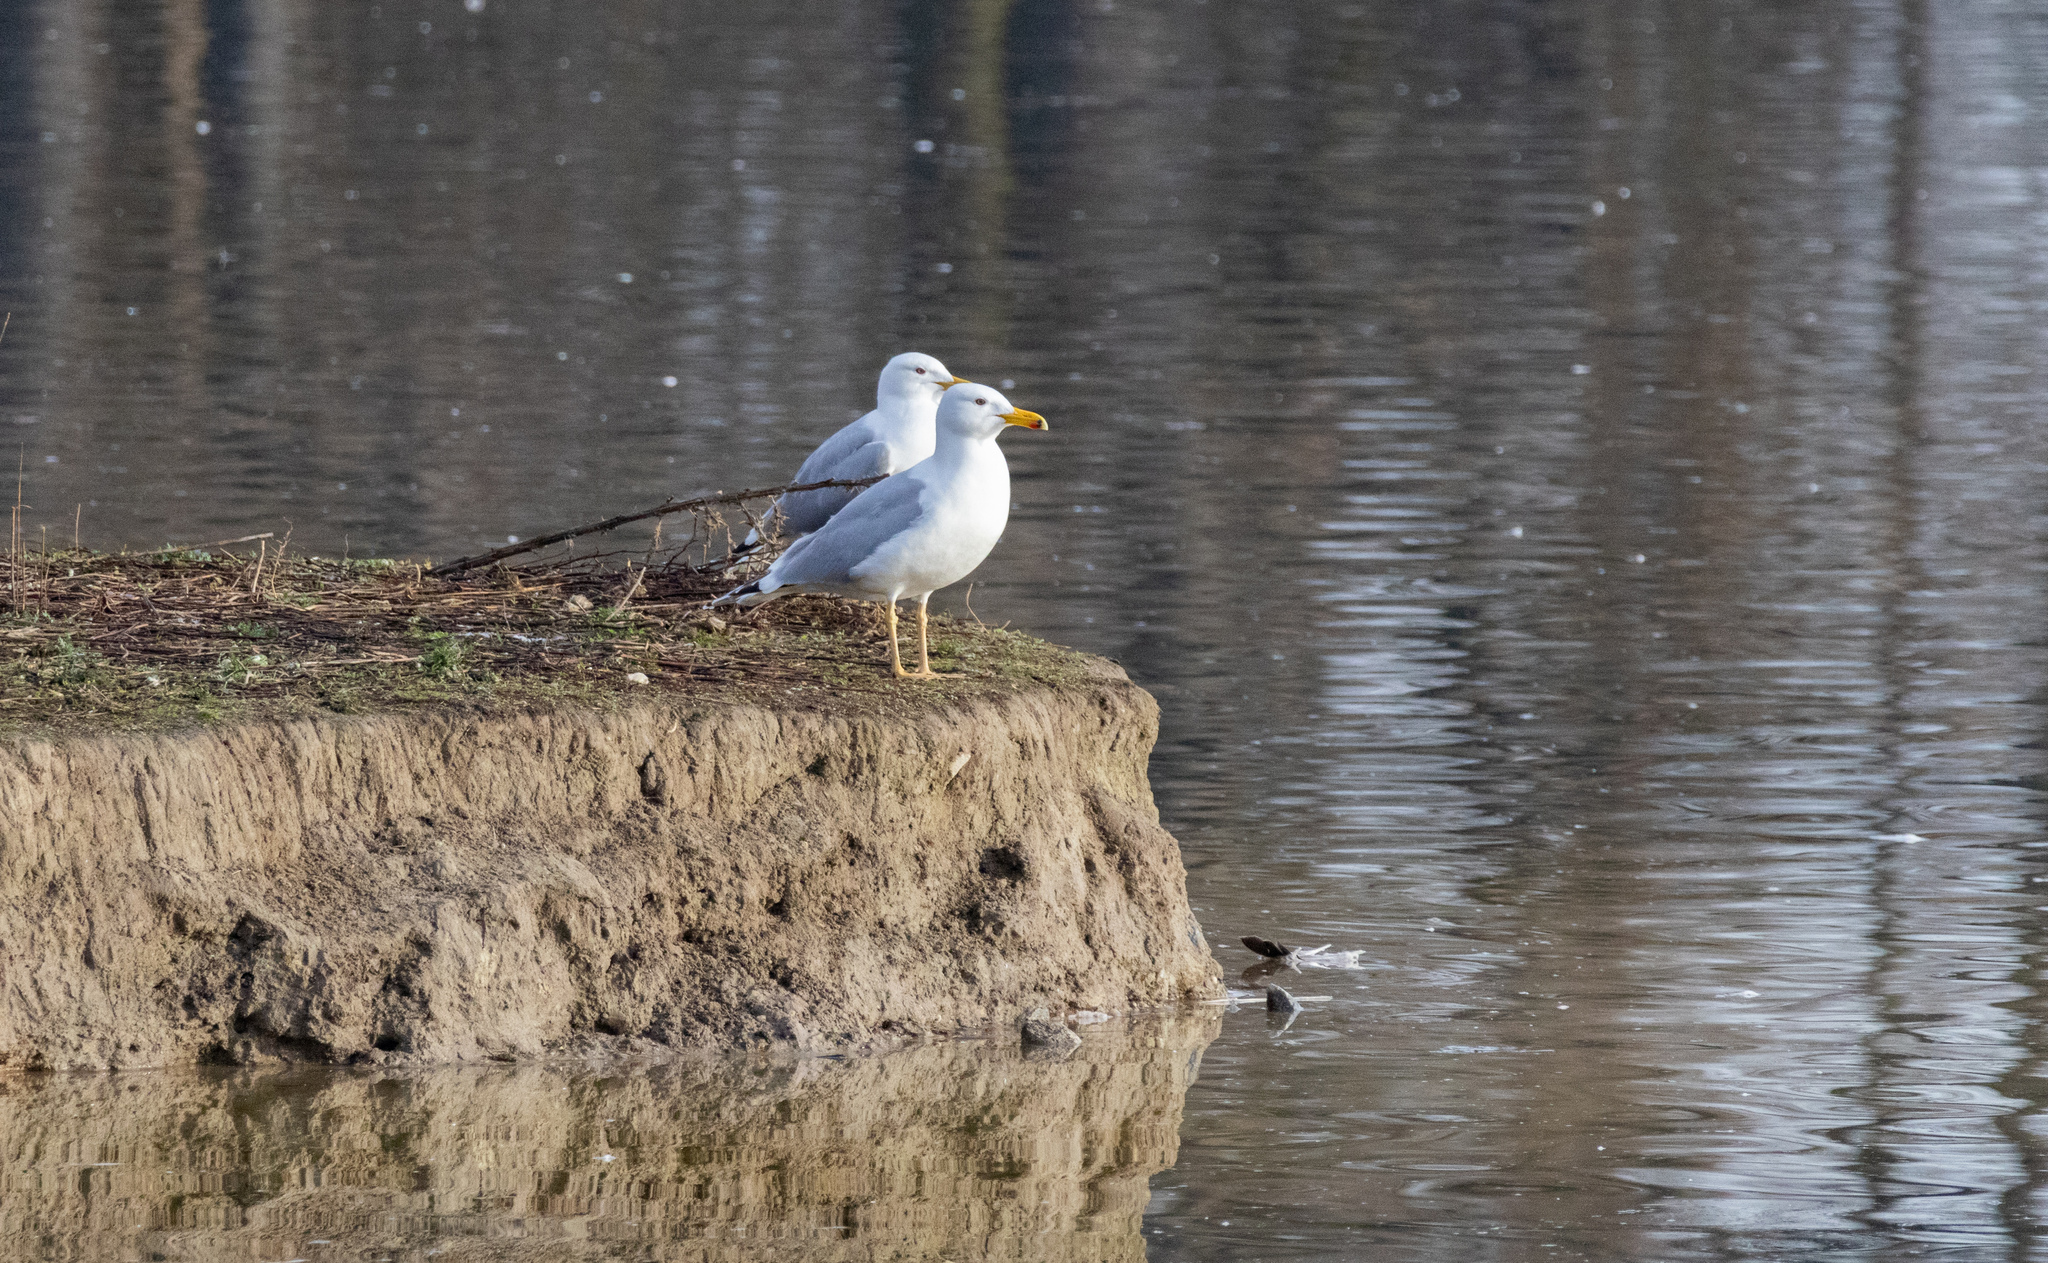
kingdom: Animalia
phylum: Chordata
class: Aves
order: Charadriiformes
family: Laridae
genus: Larus
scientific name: Larus cachinnans
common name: Caspian gull
